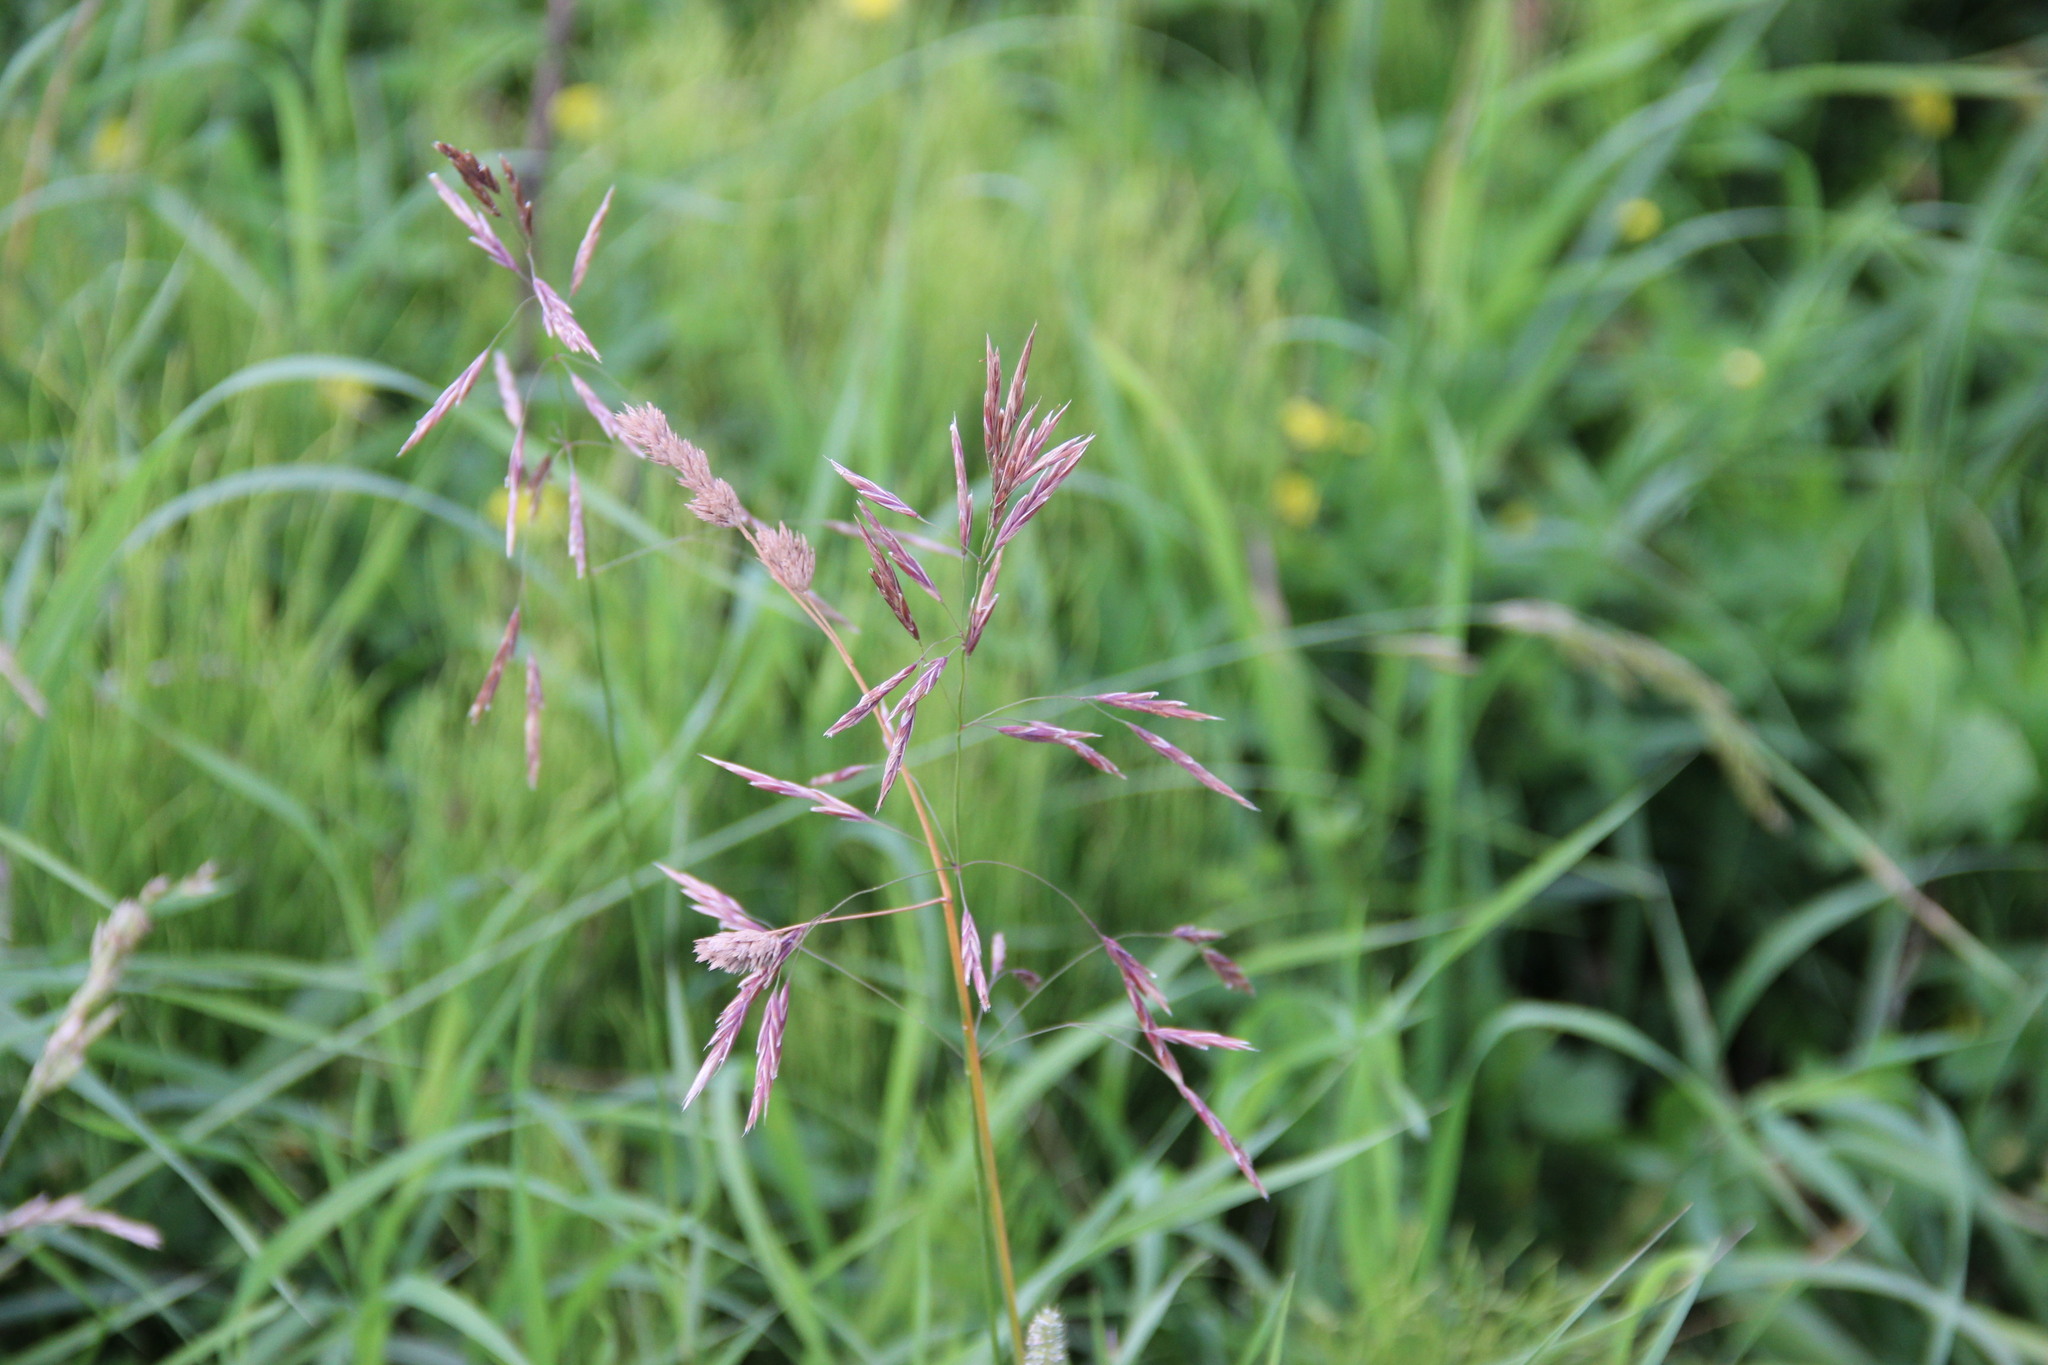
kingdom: Plantae
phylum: Tracheophyta
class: Liliopsida
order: Poales
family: Poaceae
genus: Bromus
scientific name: Bromus inermis
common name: Smooth brome
